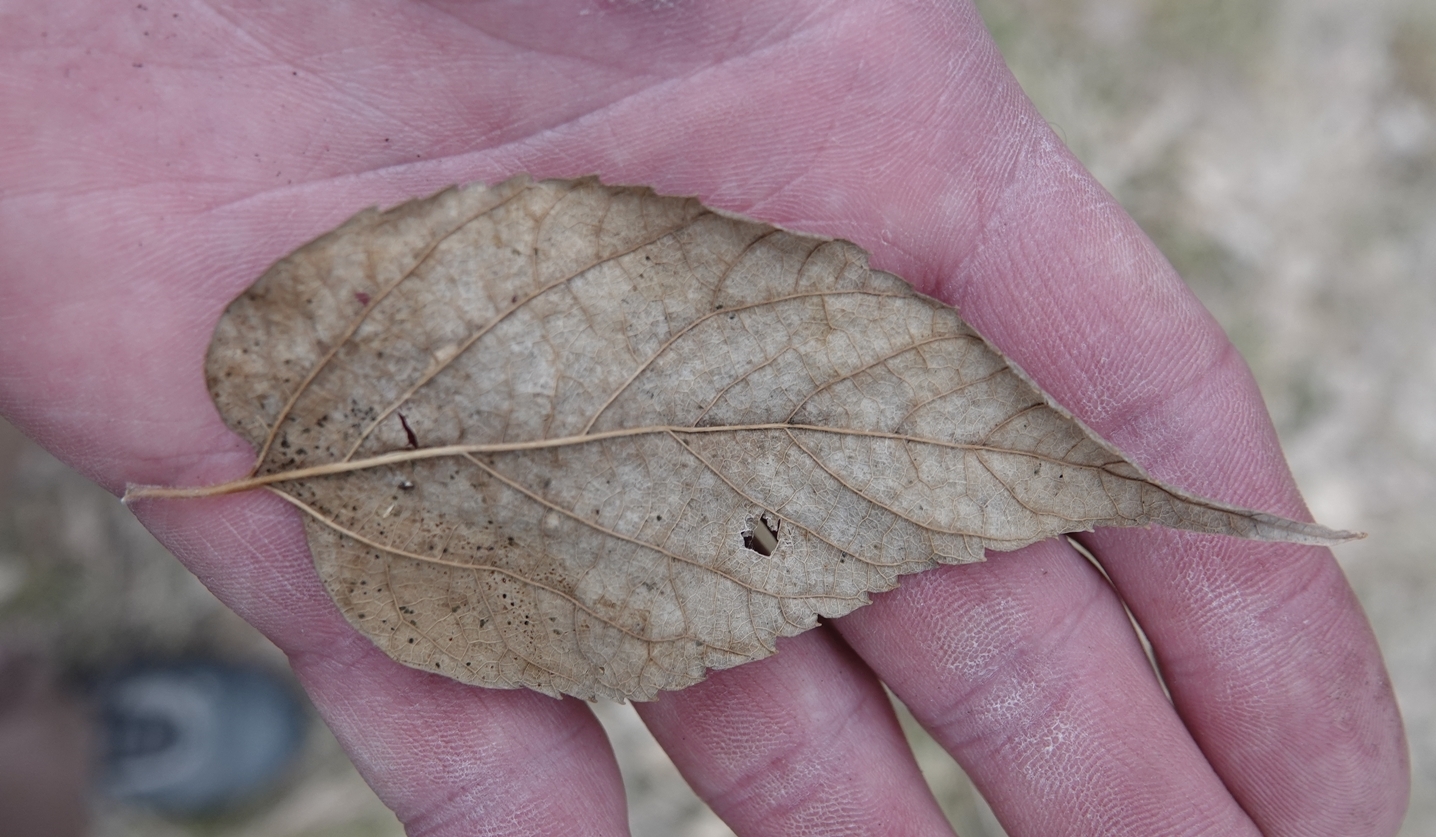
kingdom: Plantae
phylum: Tracheophyta
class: Magnoliopsida
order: Rosales
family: Cannabaceae
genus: Celtis
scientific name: Celtis occidentalis
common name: Common hackberry
